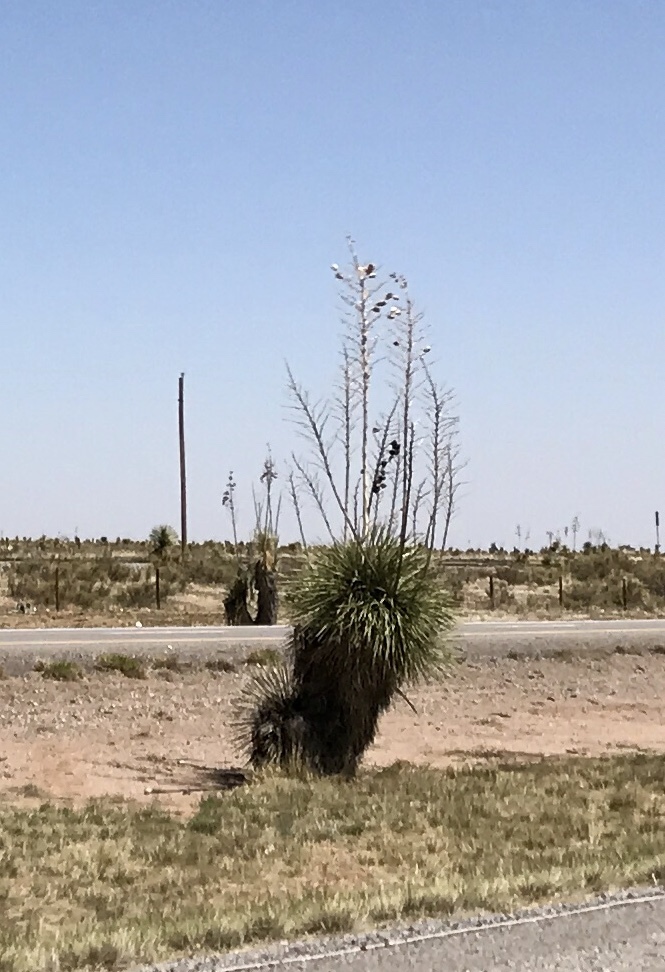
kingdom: Plantae
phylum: Tracheophyta
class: Liliopsida
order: Asparagales
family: Asparagaceae
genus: Yucca
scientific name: Yucca elata
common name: Palmella
